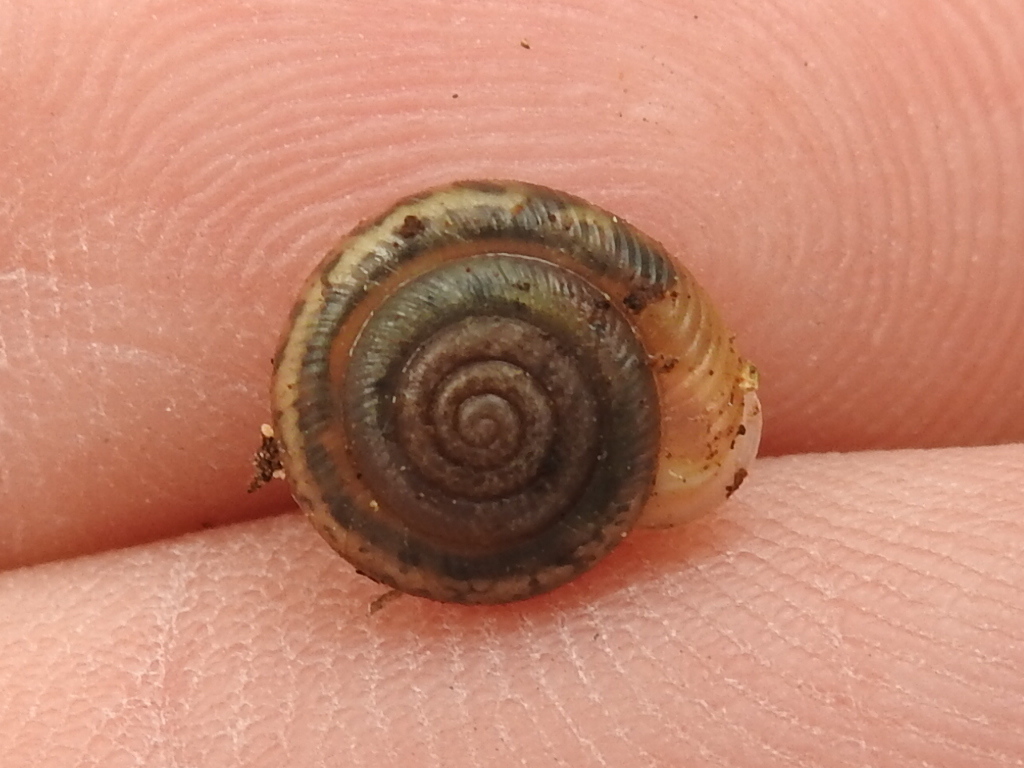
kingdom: Animalia
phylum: Mollusca
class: Gastropoda
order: Stylommatophora
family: Polygyridae
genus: Linisa
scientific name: Linisa texasiana
